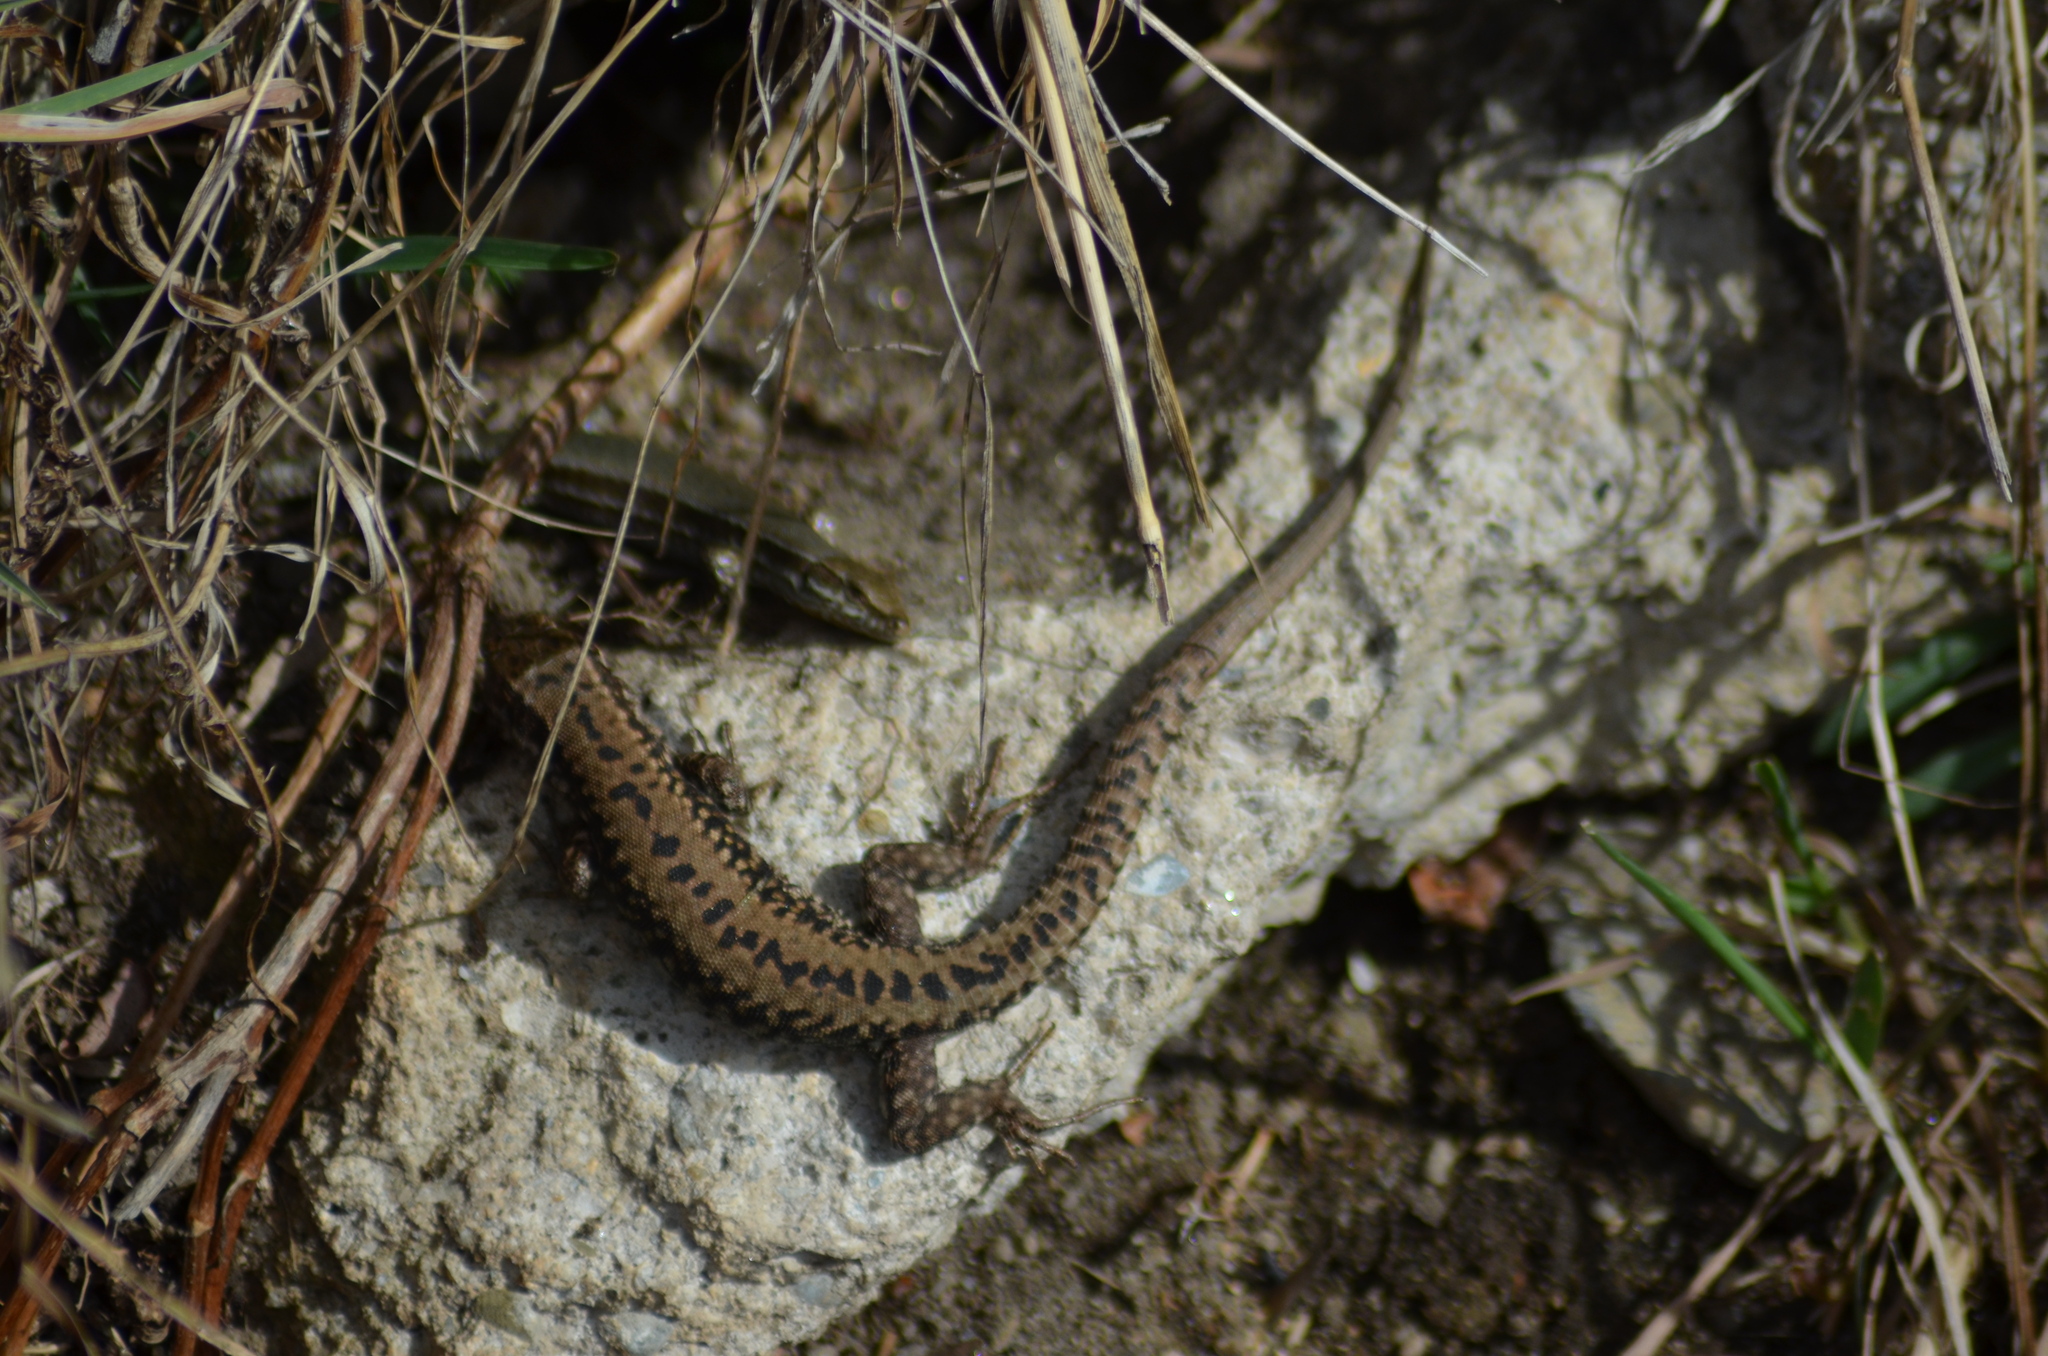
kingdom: Animalia
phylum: Chordata
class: Squamata
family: Lacertidae
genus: Podarcis
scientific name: Podarcis muralis
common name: Common wall lizard
